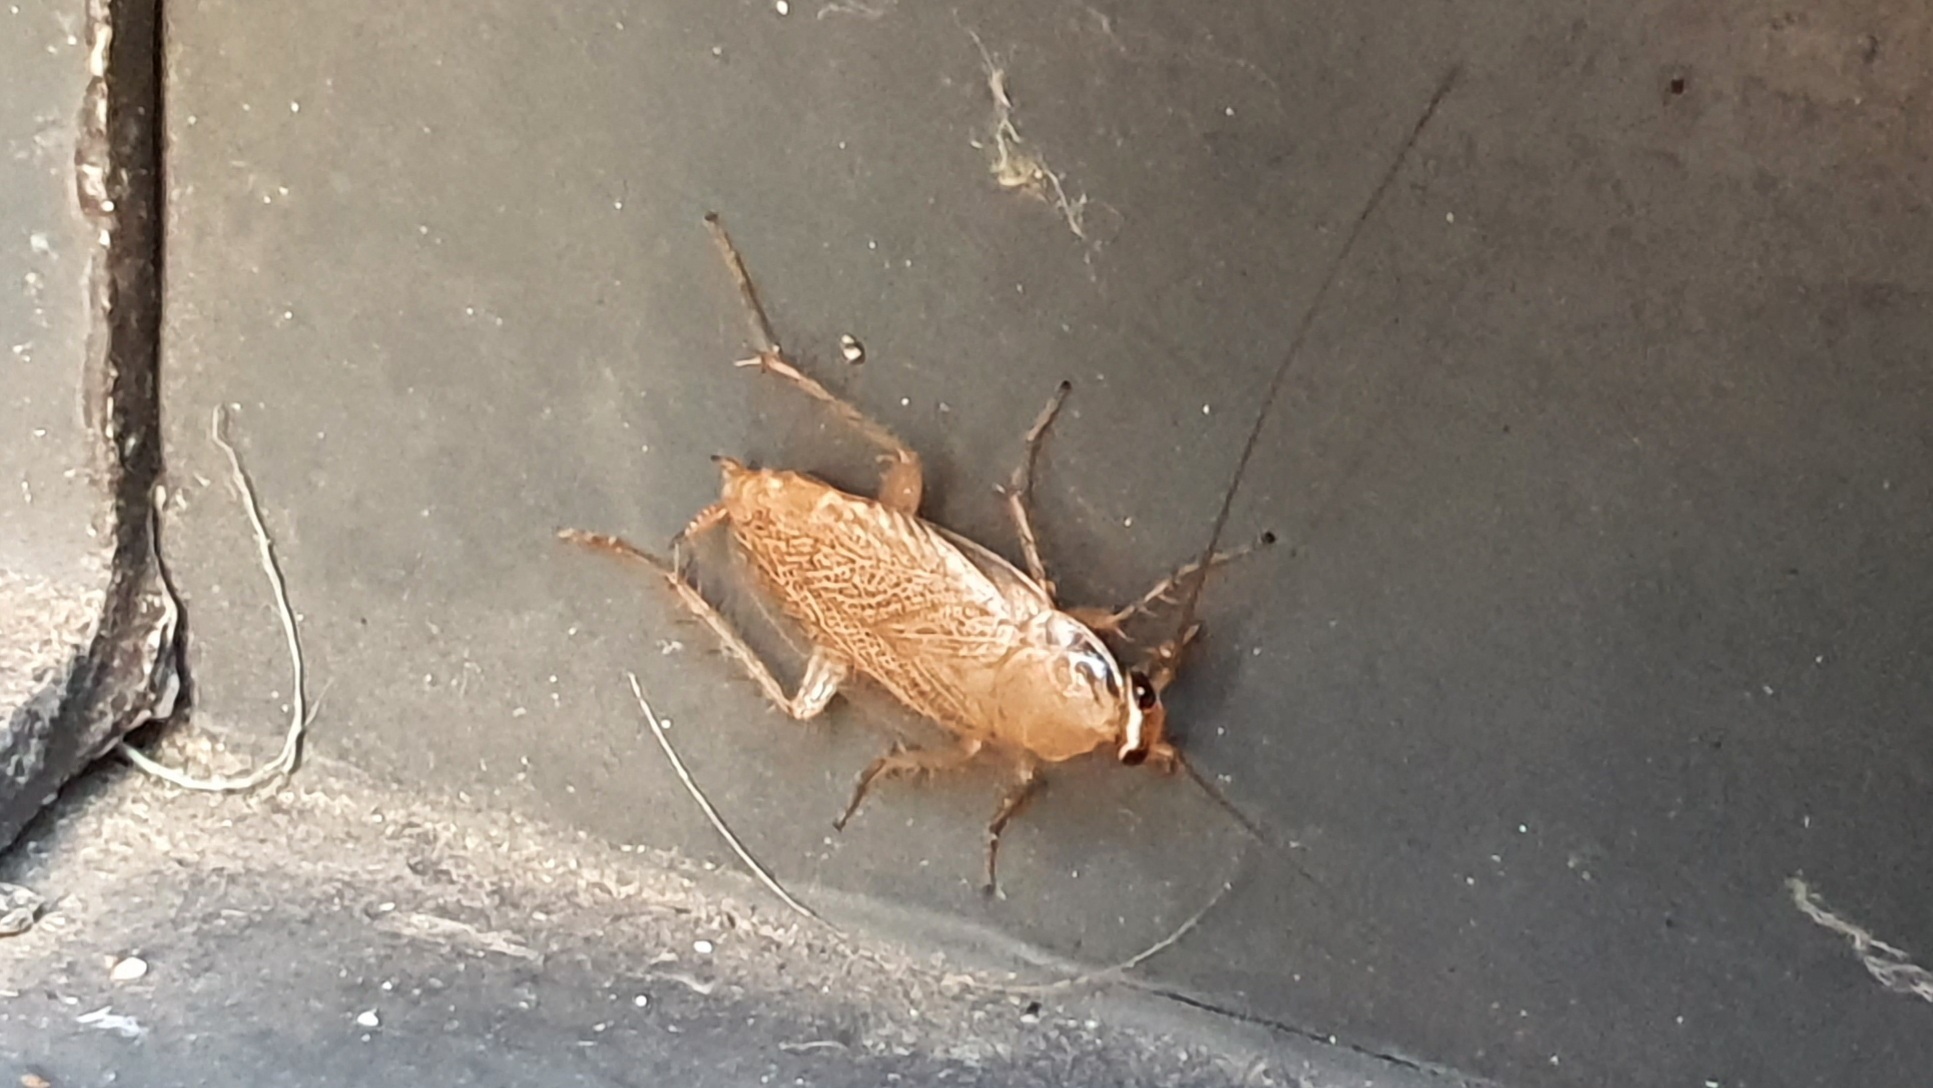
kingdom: Animalia
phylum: Arthropoda
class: Insecta
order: Blattodea
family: Ectobiidae
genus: Ectobius
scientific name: Ectobius vittiventris
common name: Garden cockroach
